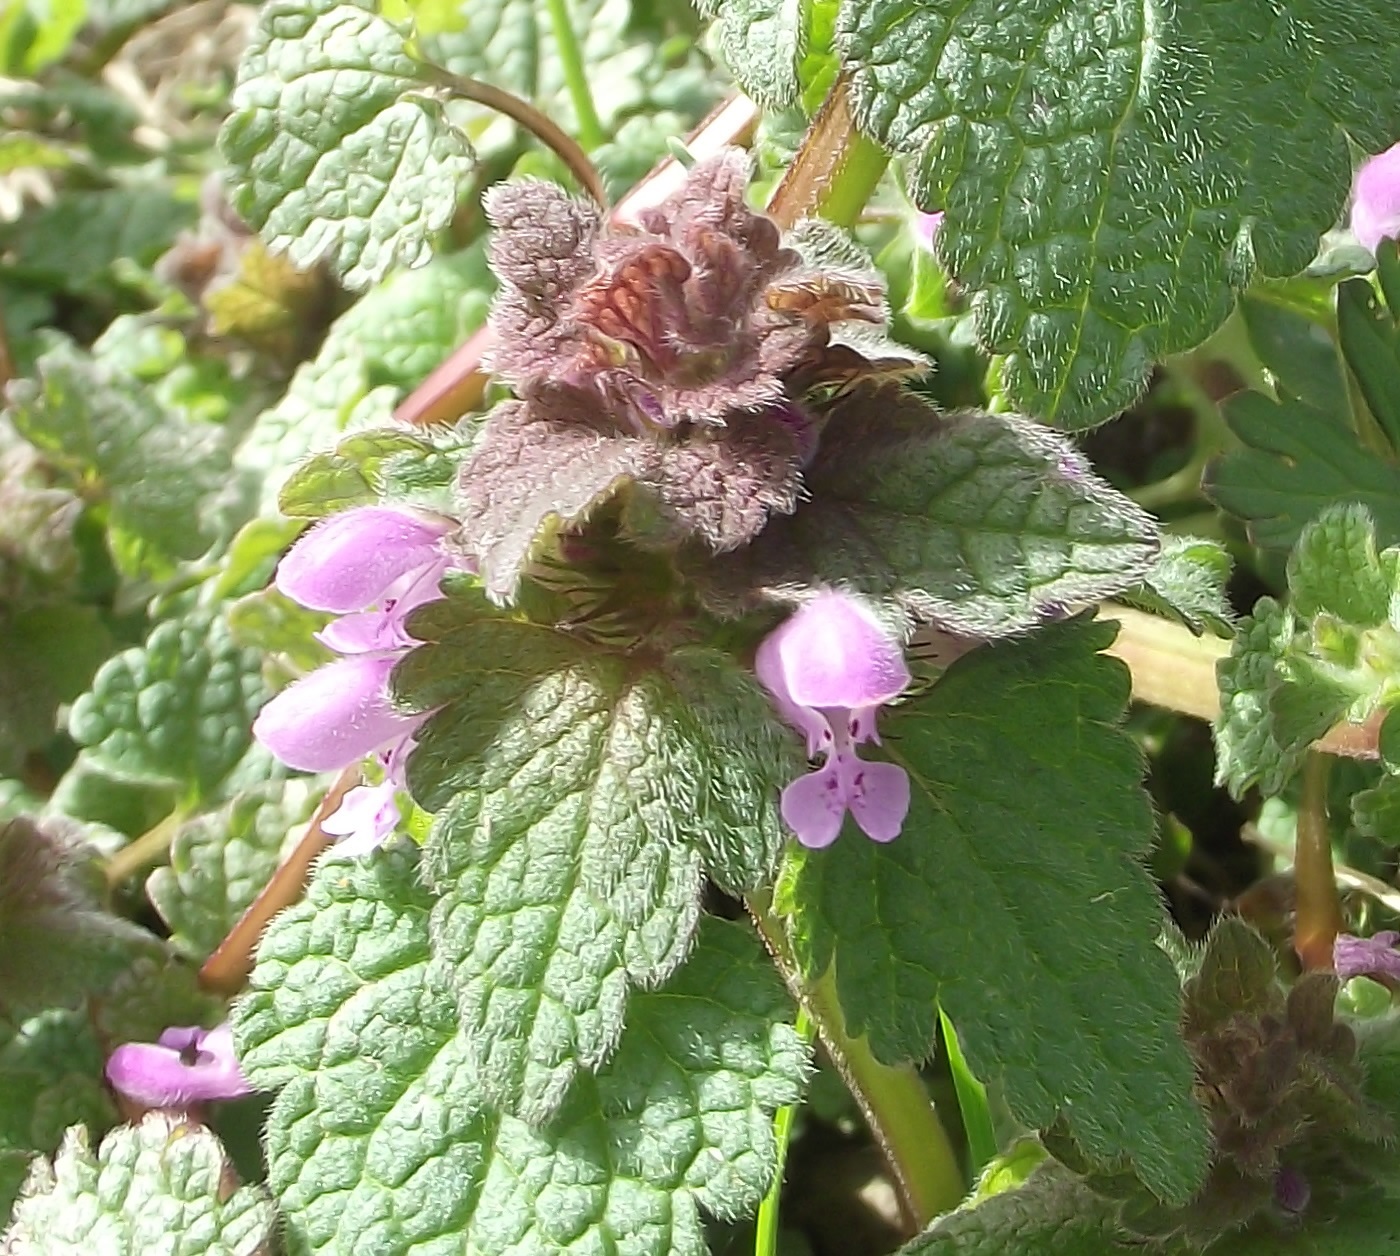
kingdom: Plantae
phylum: Tracheophyta
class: Magnoliopsida
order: Lamiales
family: Lamiaceae
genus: Lamium
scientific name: Lamium purpureum
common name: Red dead-nettle
